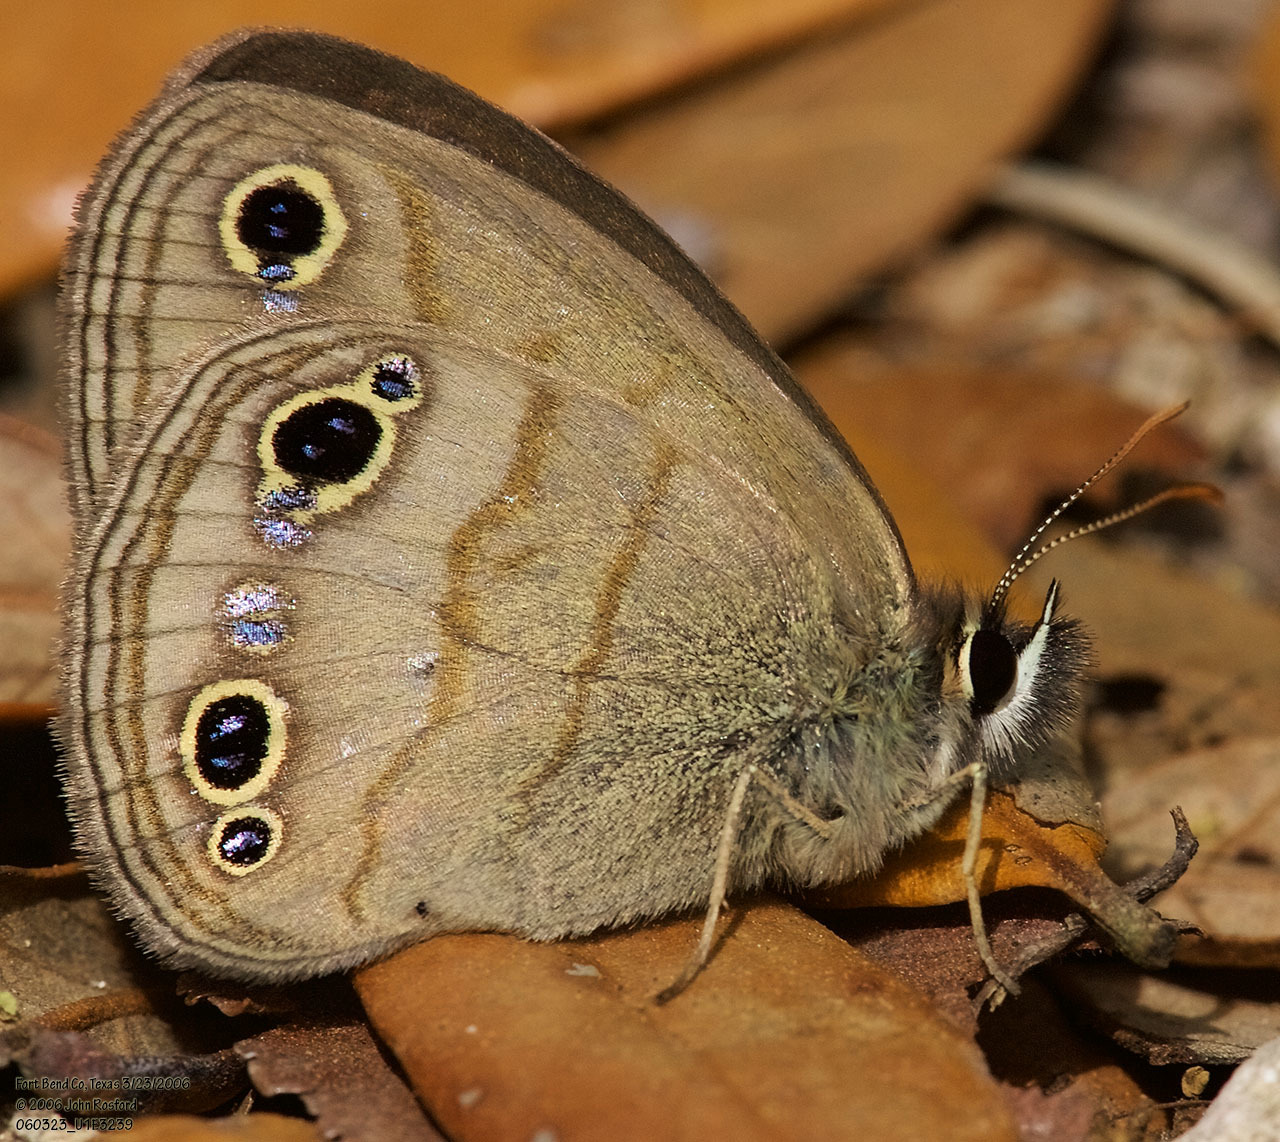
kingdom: Animalia
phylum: Arthropoda
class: Insecta
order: Lepidoptera
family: Nymphalidae
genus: Euptychia
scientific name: Euptychia cymela
